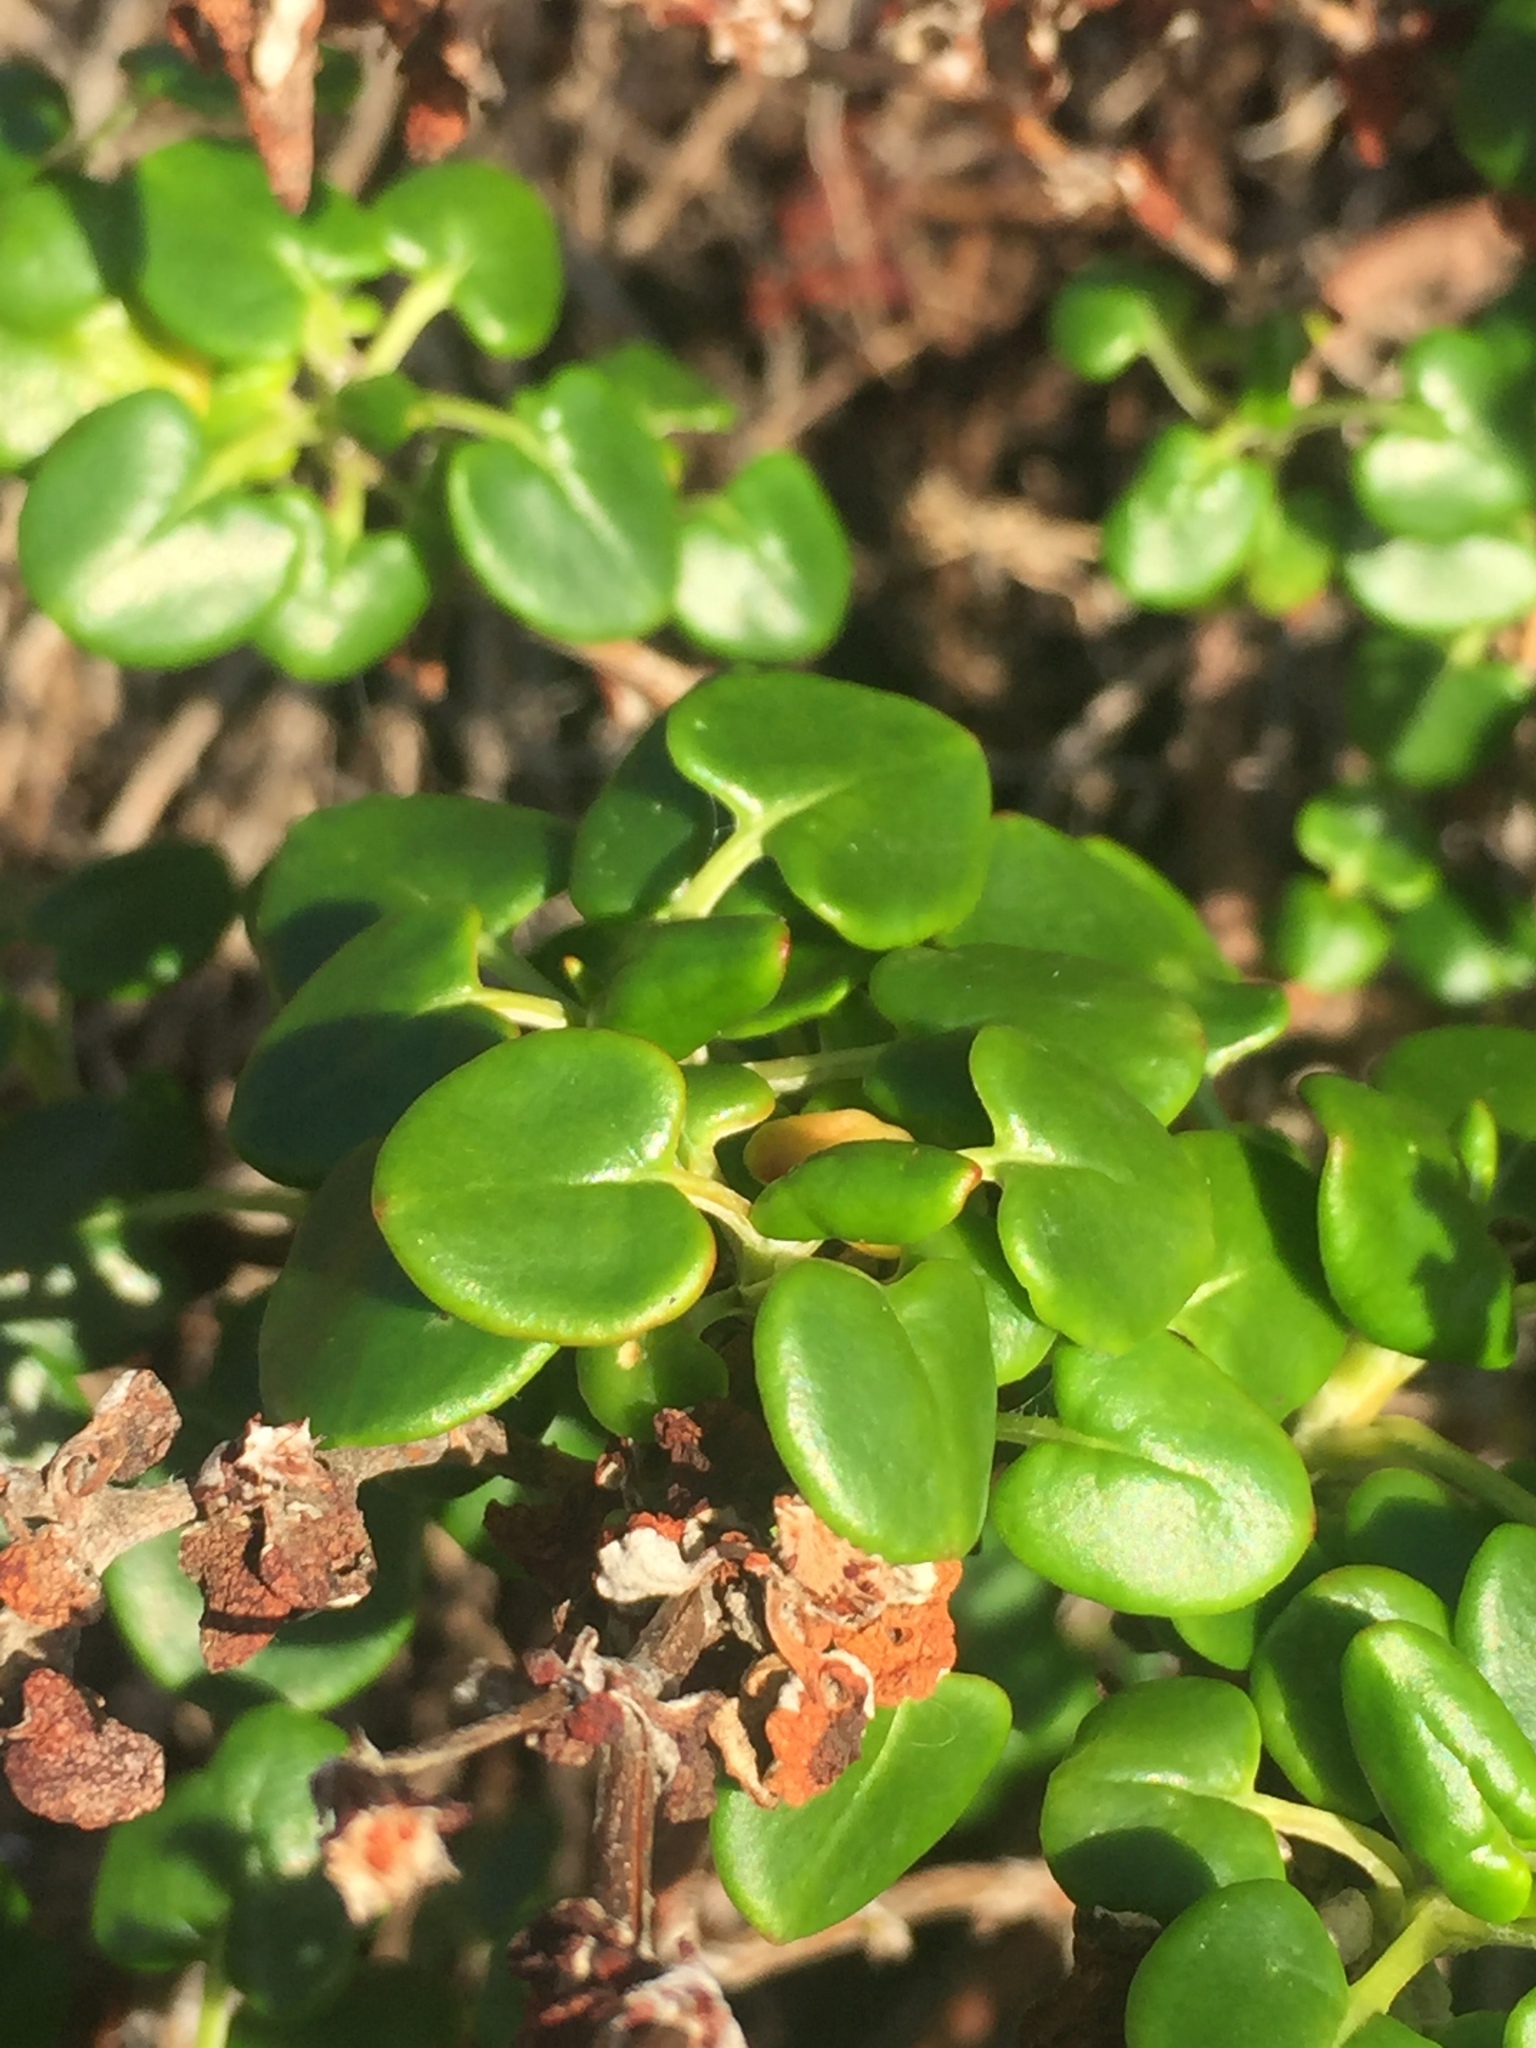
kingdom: Plantae
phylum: Tracheophyta
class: Magnoliopsida
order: Caryophyllales
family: Polygonaceae
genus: Eriogonum
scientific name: Eriogonum parvifolium
